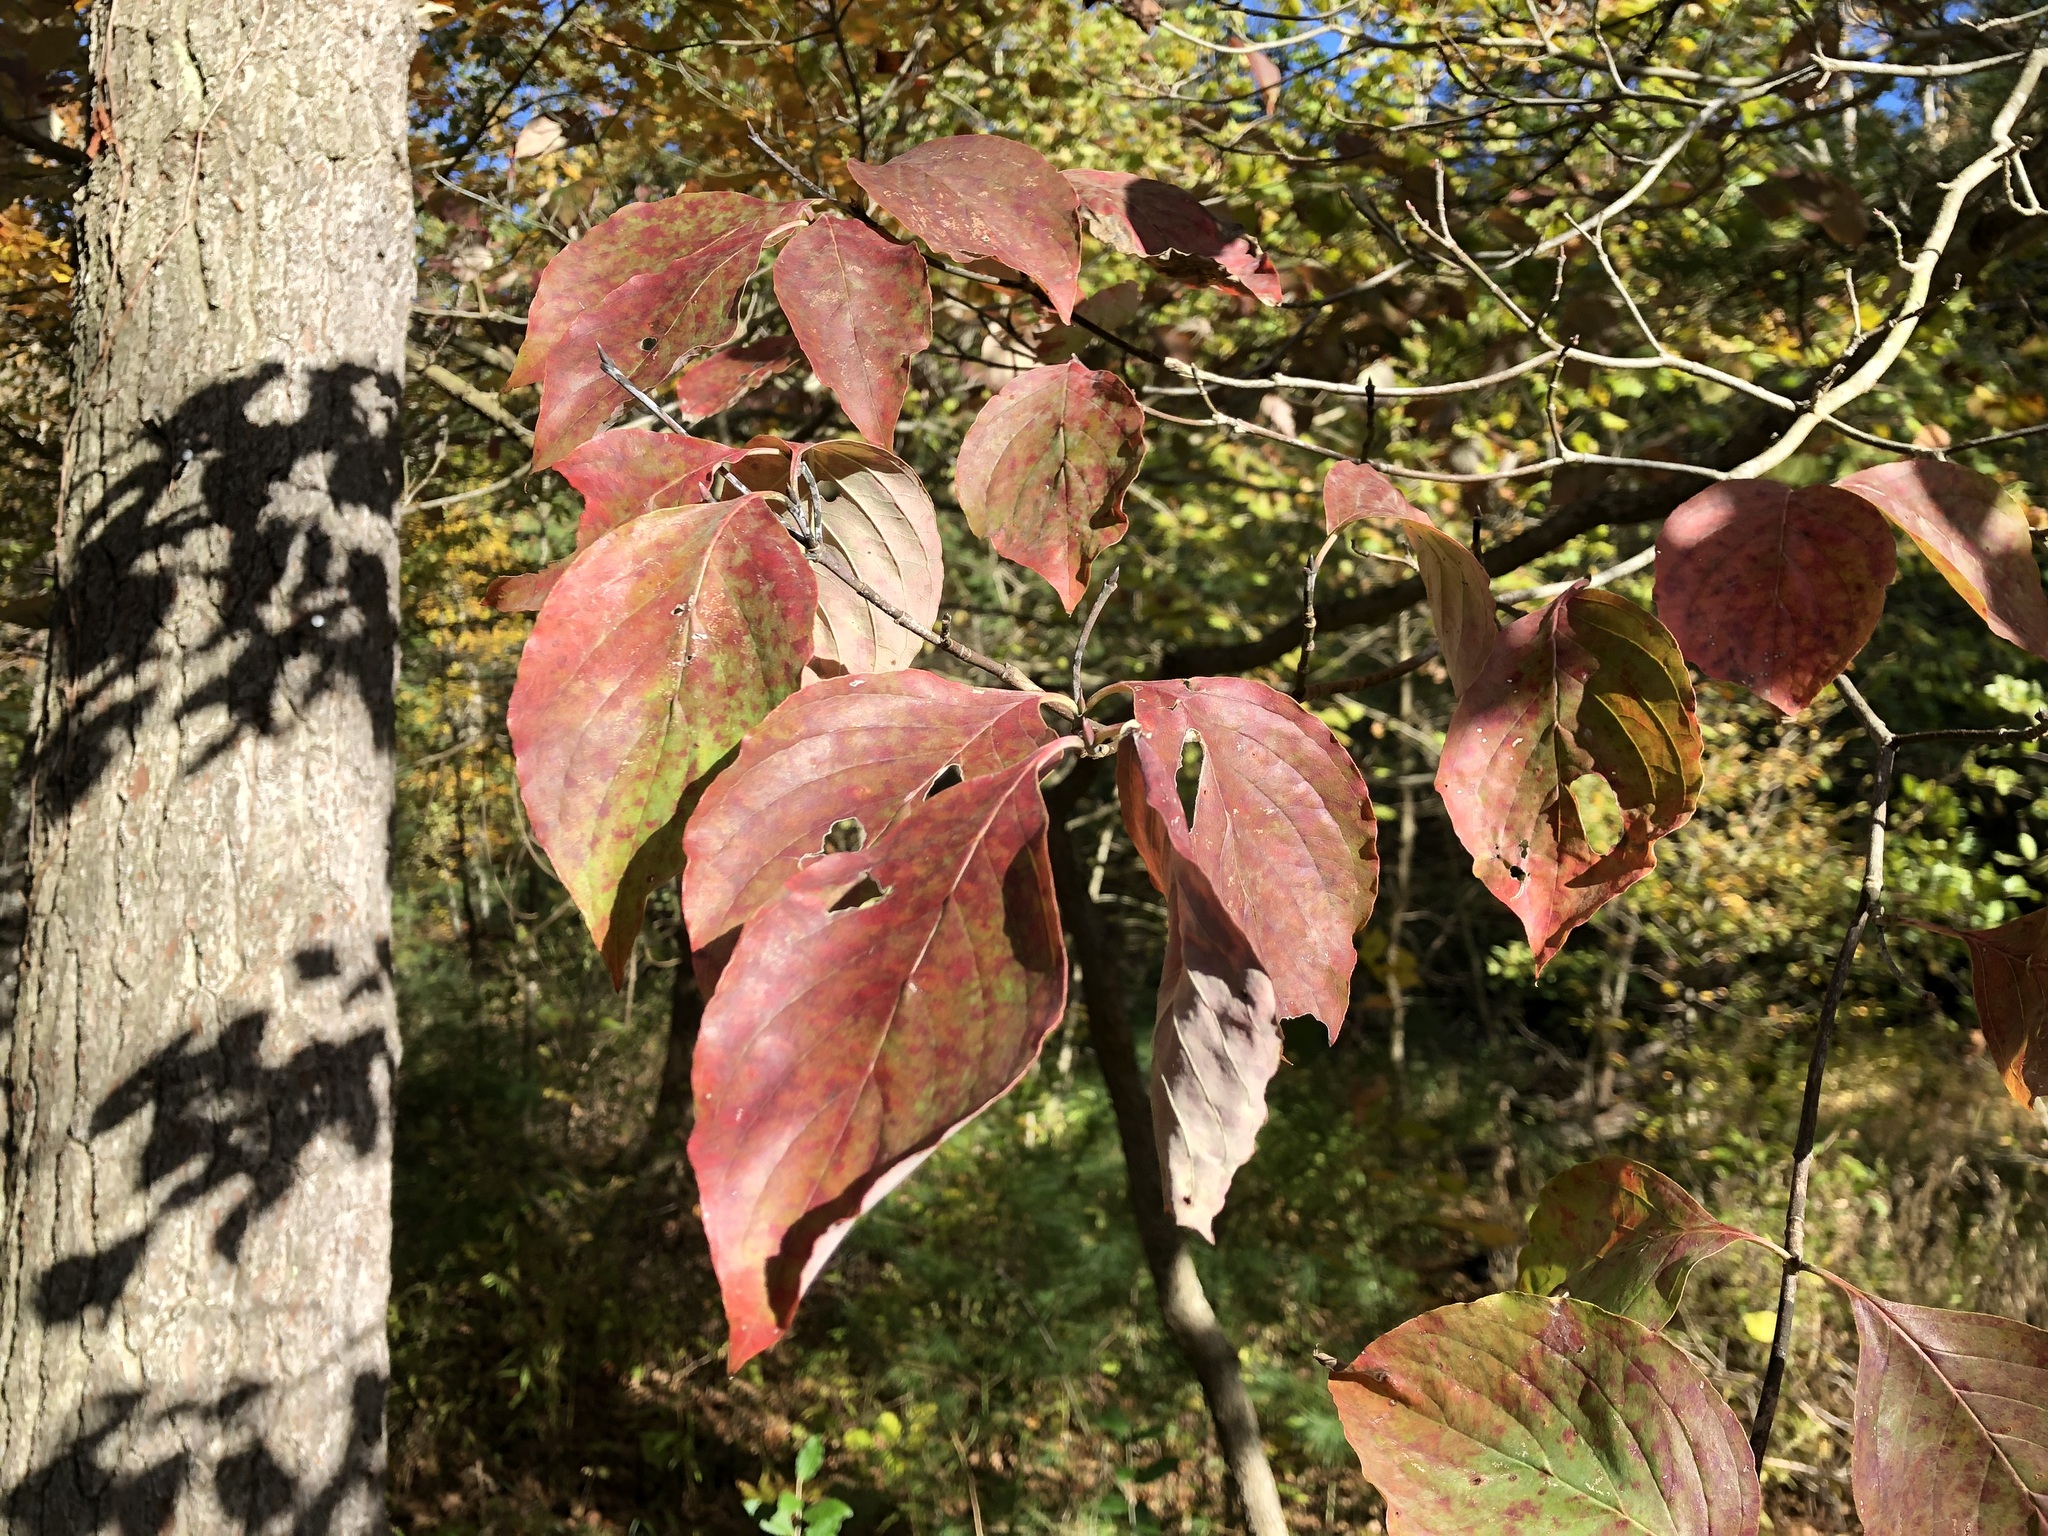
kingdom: Plantae
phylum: Tracheophyta
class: Magnoliopsida
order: Cornales
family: Cornaceae
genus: Cornus
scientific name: Cornus florida
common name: Flowering dogwood
